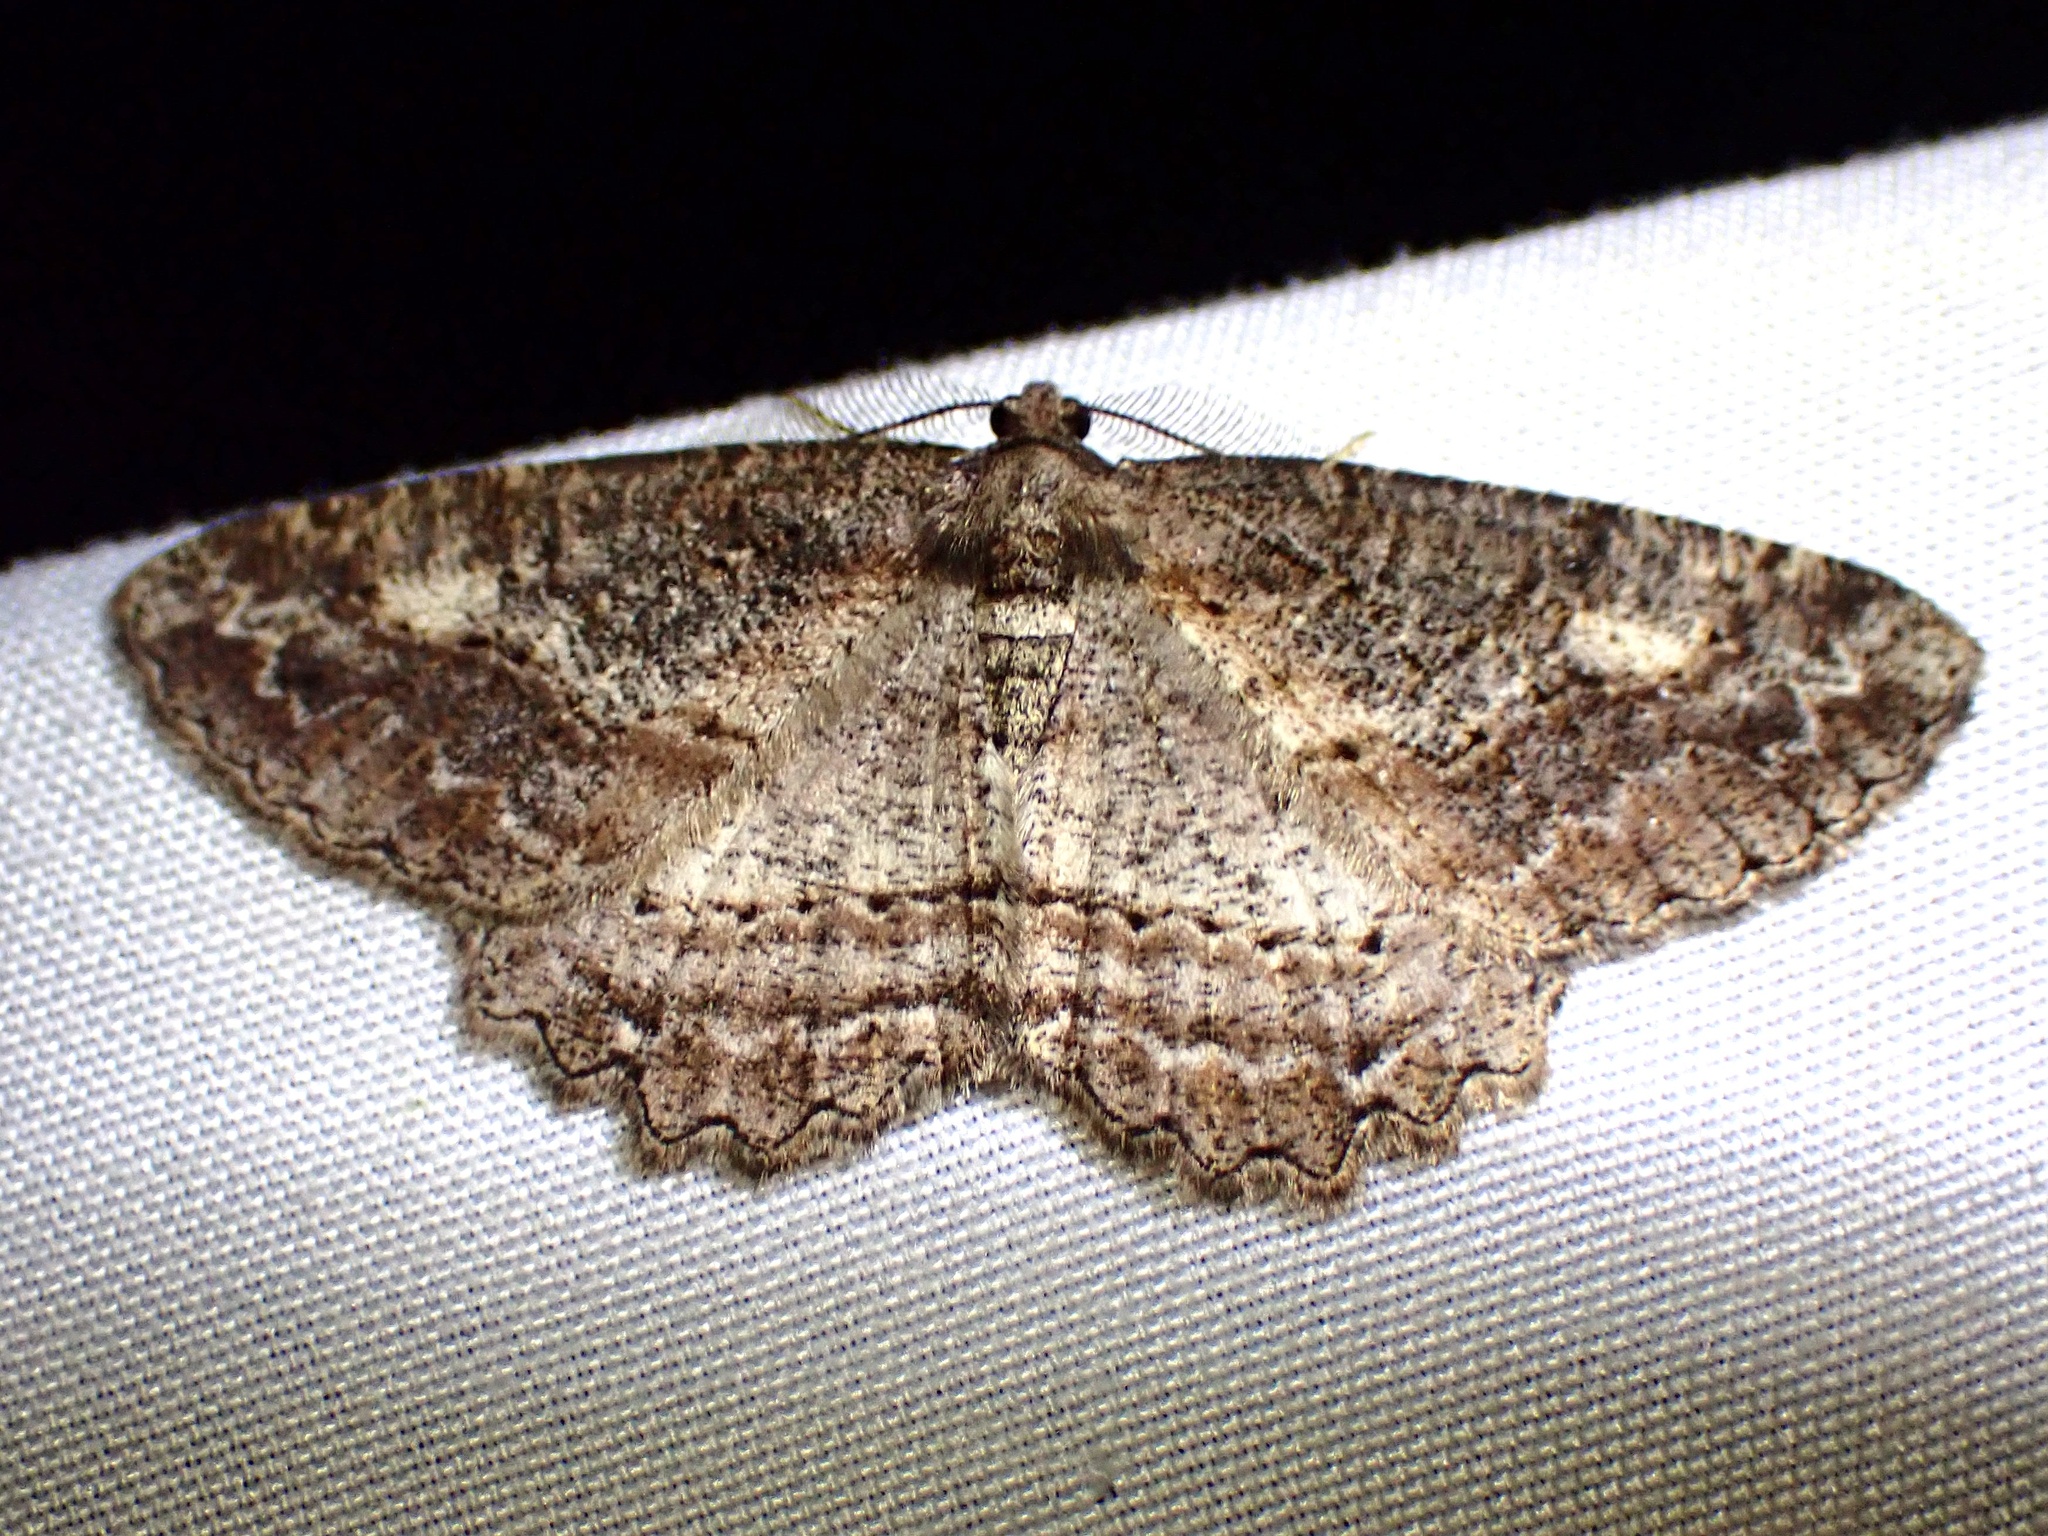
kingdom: Animalia
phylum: Arthropoda
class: Insecta
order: Lepidoptera
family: Geometridae
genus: Neoalcis
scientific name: Neoalcis californiaria
